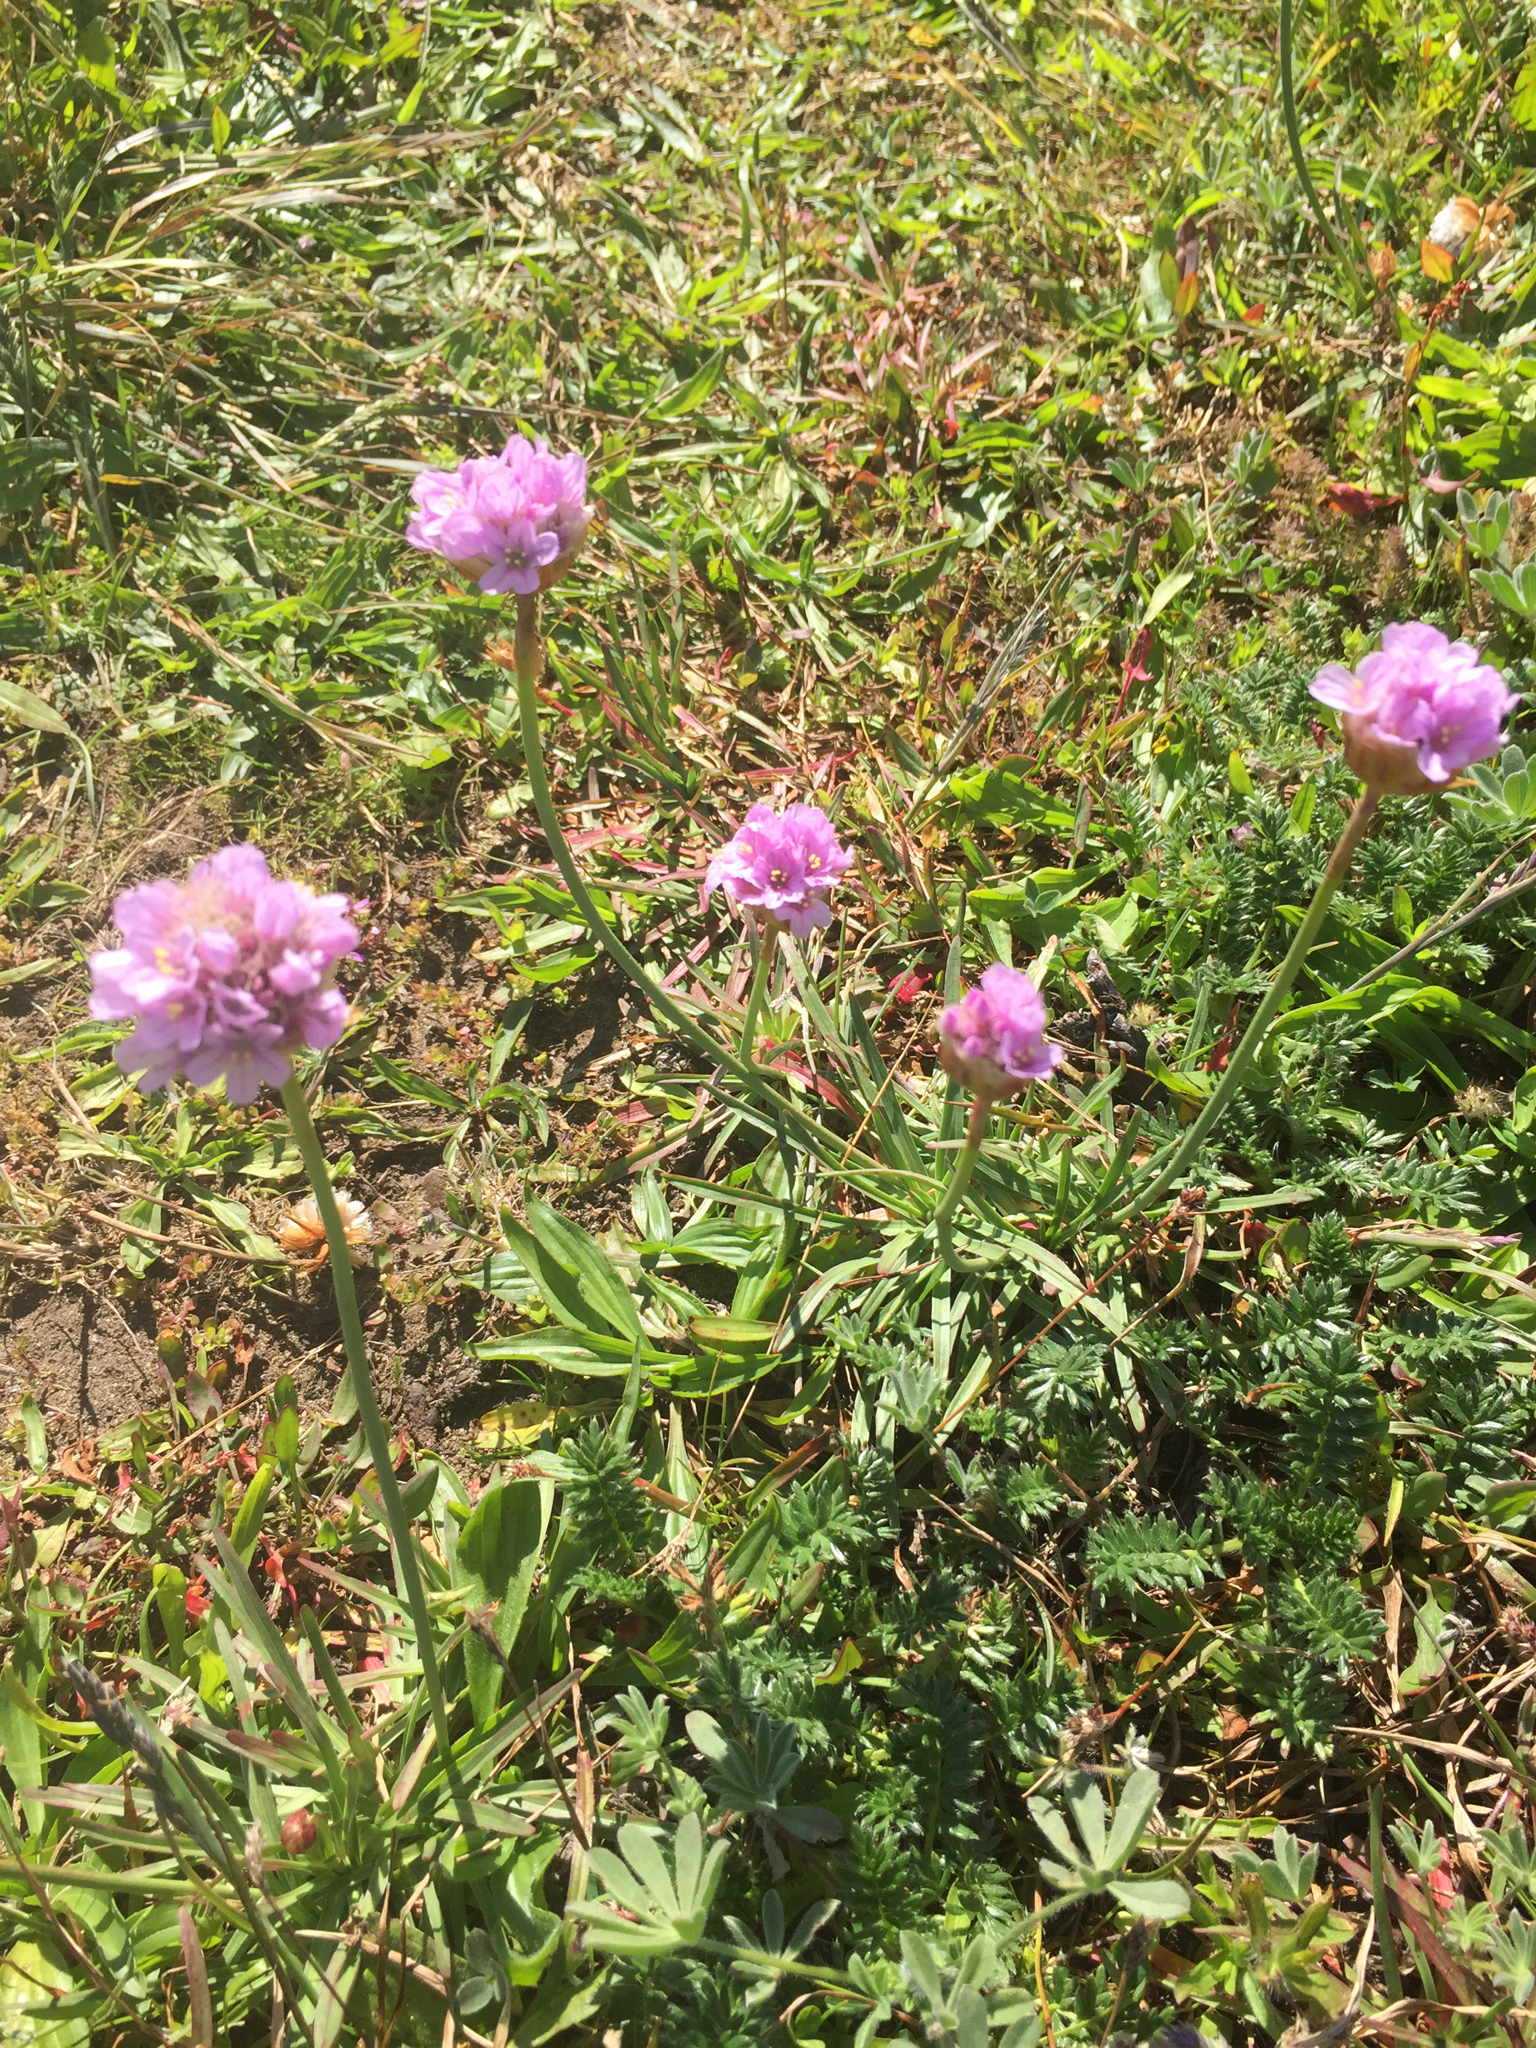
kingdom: Plantae
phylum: Tracheophyta
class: Magnoliopsida
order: Caryophyllales
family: Plumbaginaceae
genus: Armeria
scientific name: Armeria maritima
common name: Thrift
